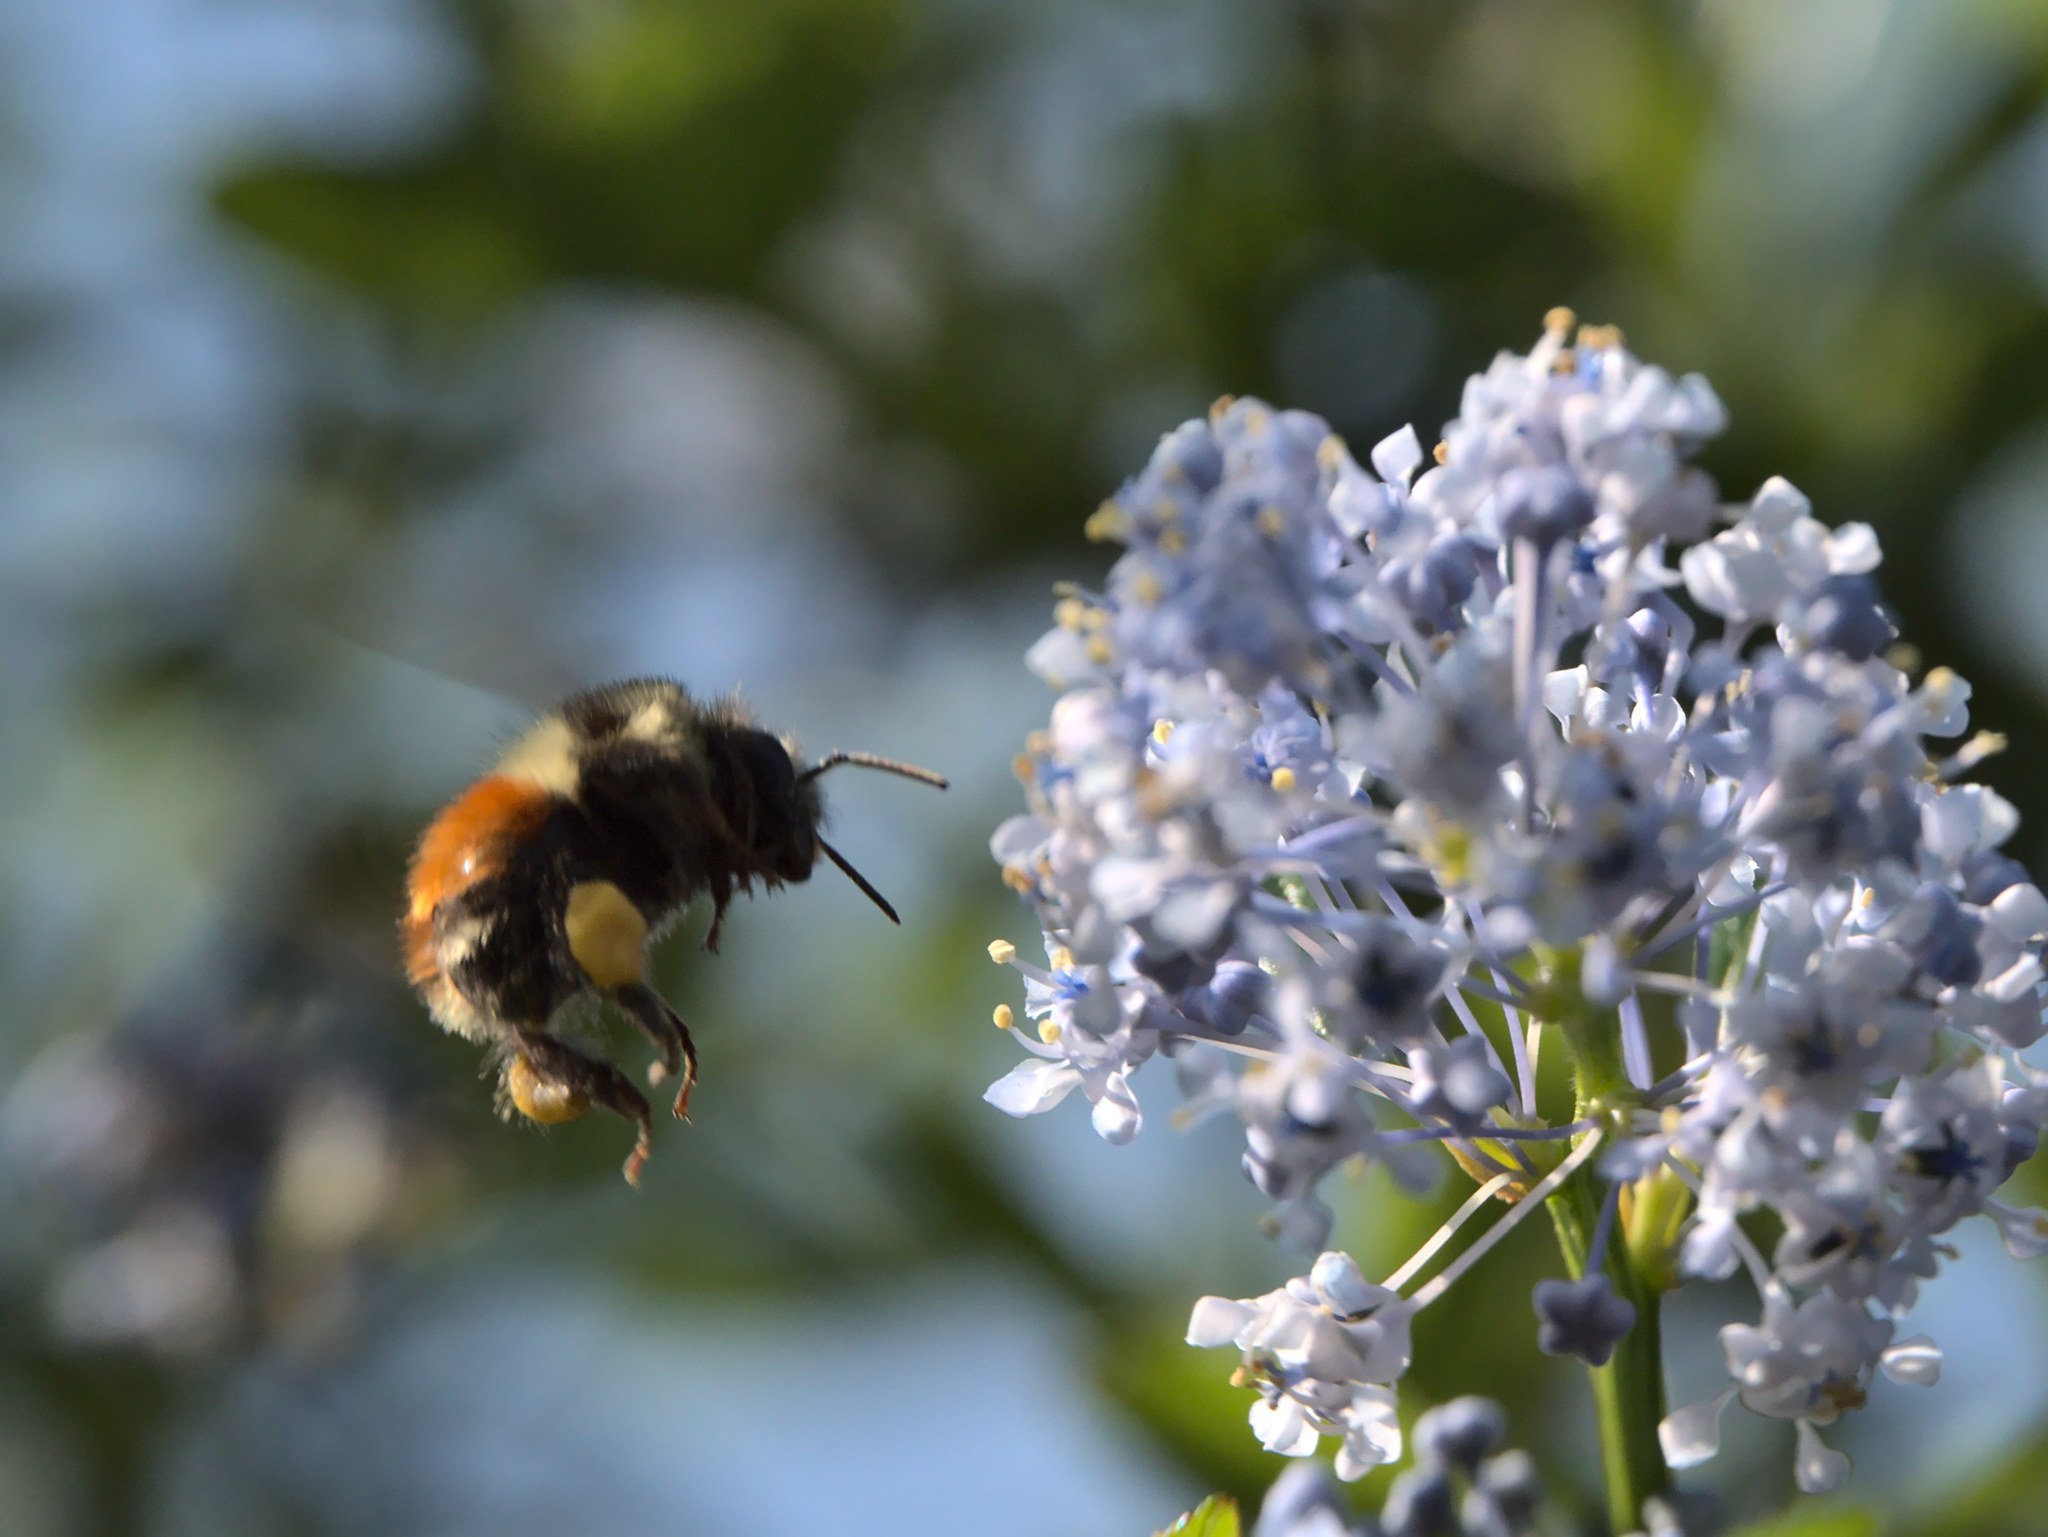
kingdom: Animalia
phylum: Arthropoda
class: Insecta
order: Hymenoptera
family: Apidae
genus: Bombus
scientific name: Bombus melanopygus
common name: Black tail bumble bee
